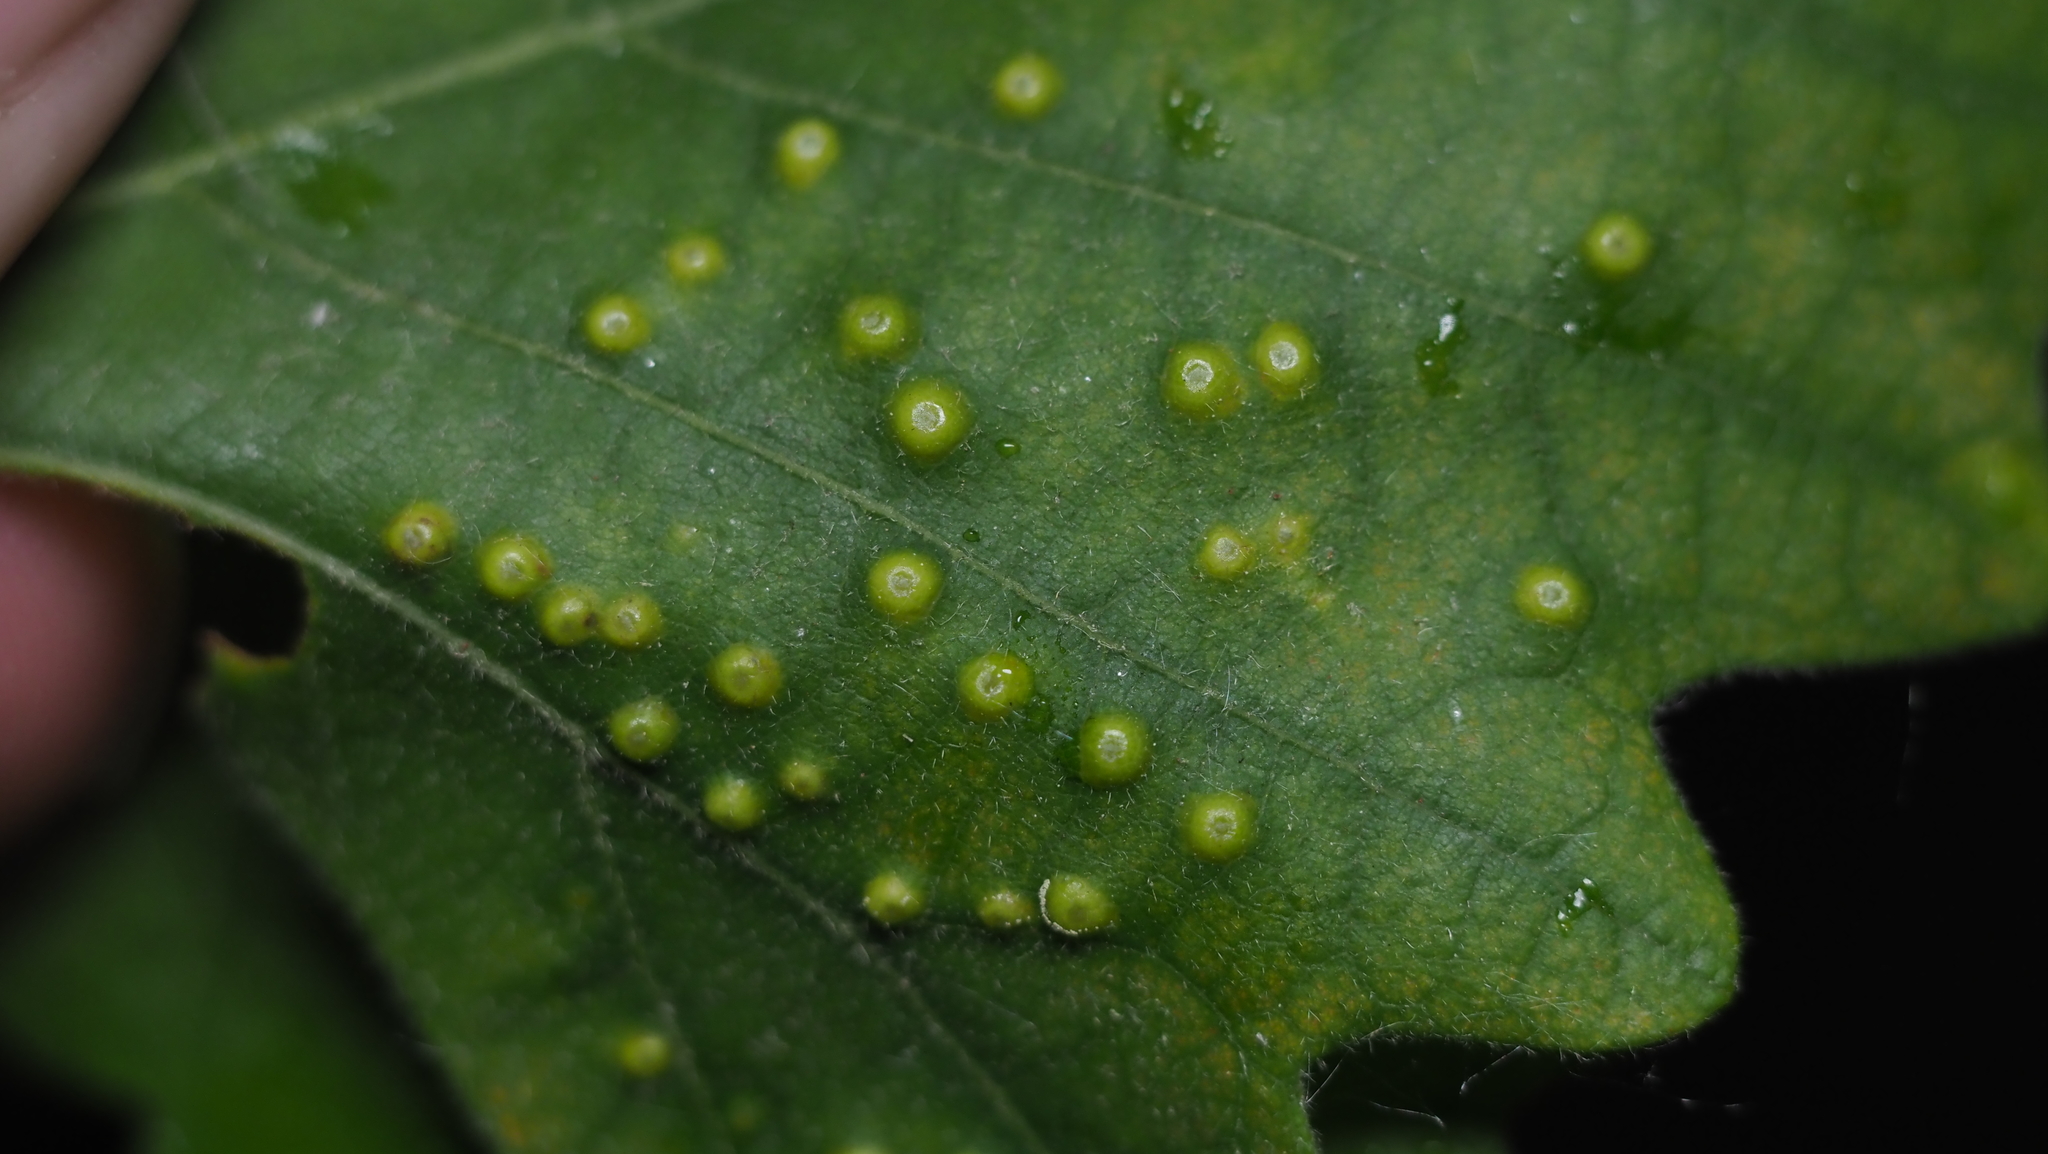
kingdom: Animalia
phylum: Arthropoda
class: Insecta
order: Hymenoptera
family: Cynipidae
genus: Neuroterus
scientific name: Neuroterus saltarius
